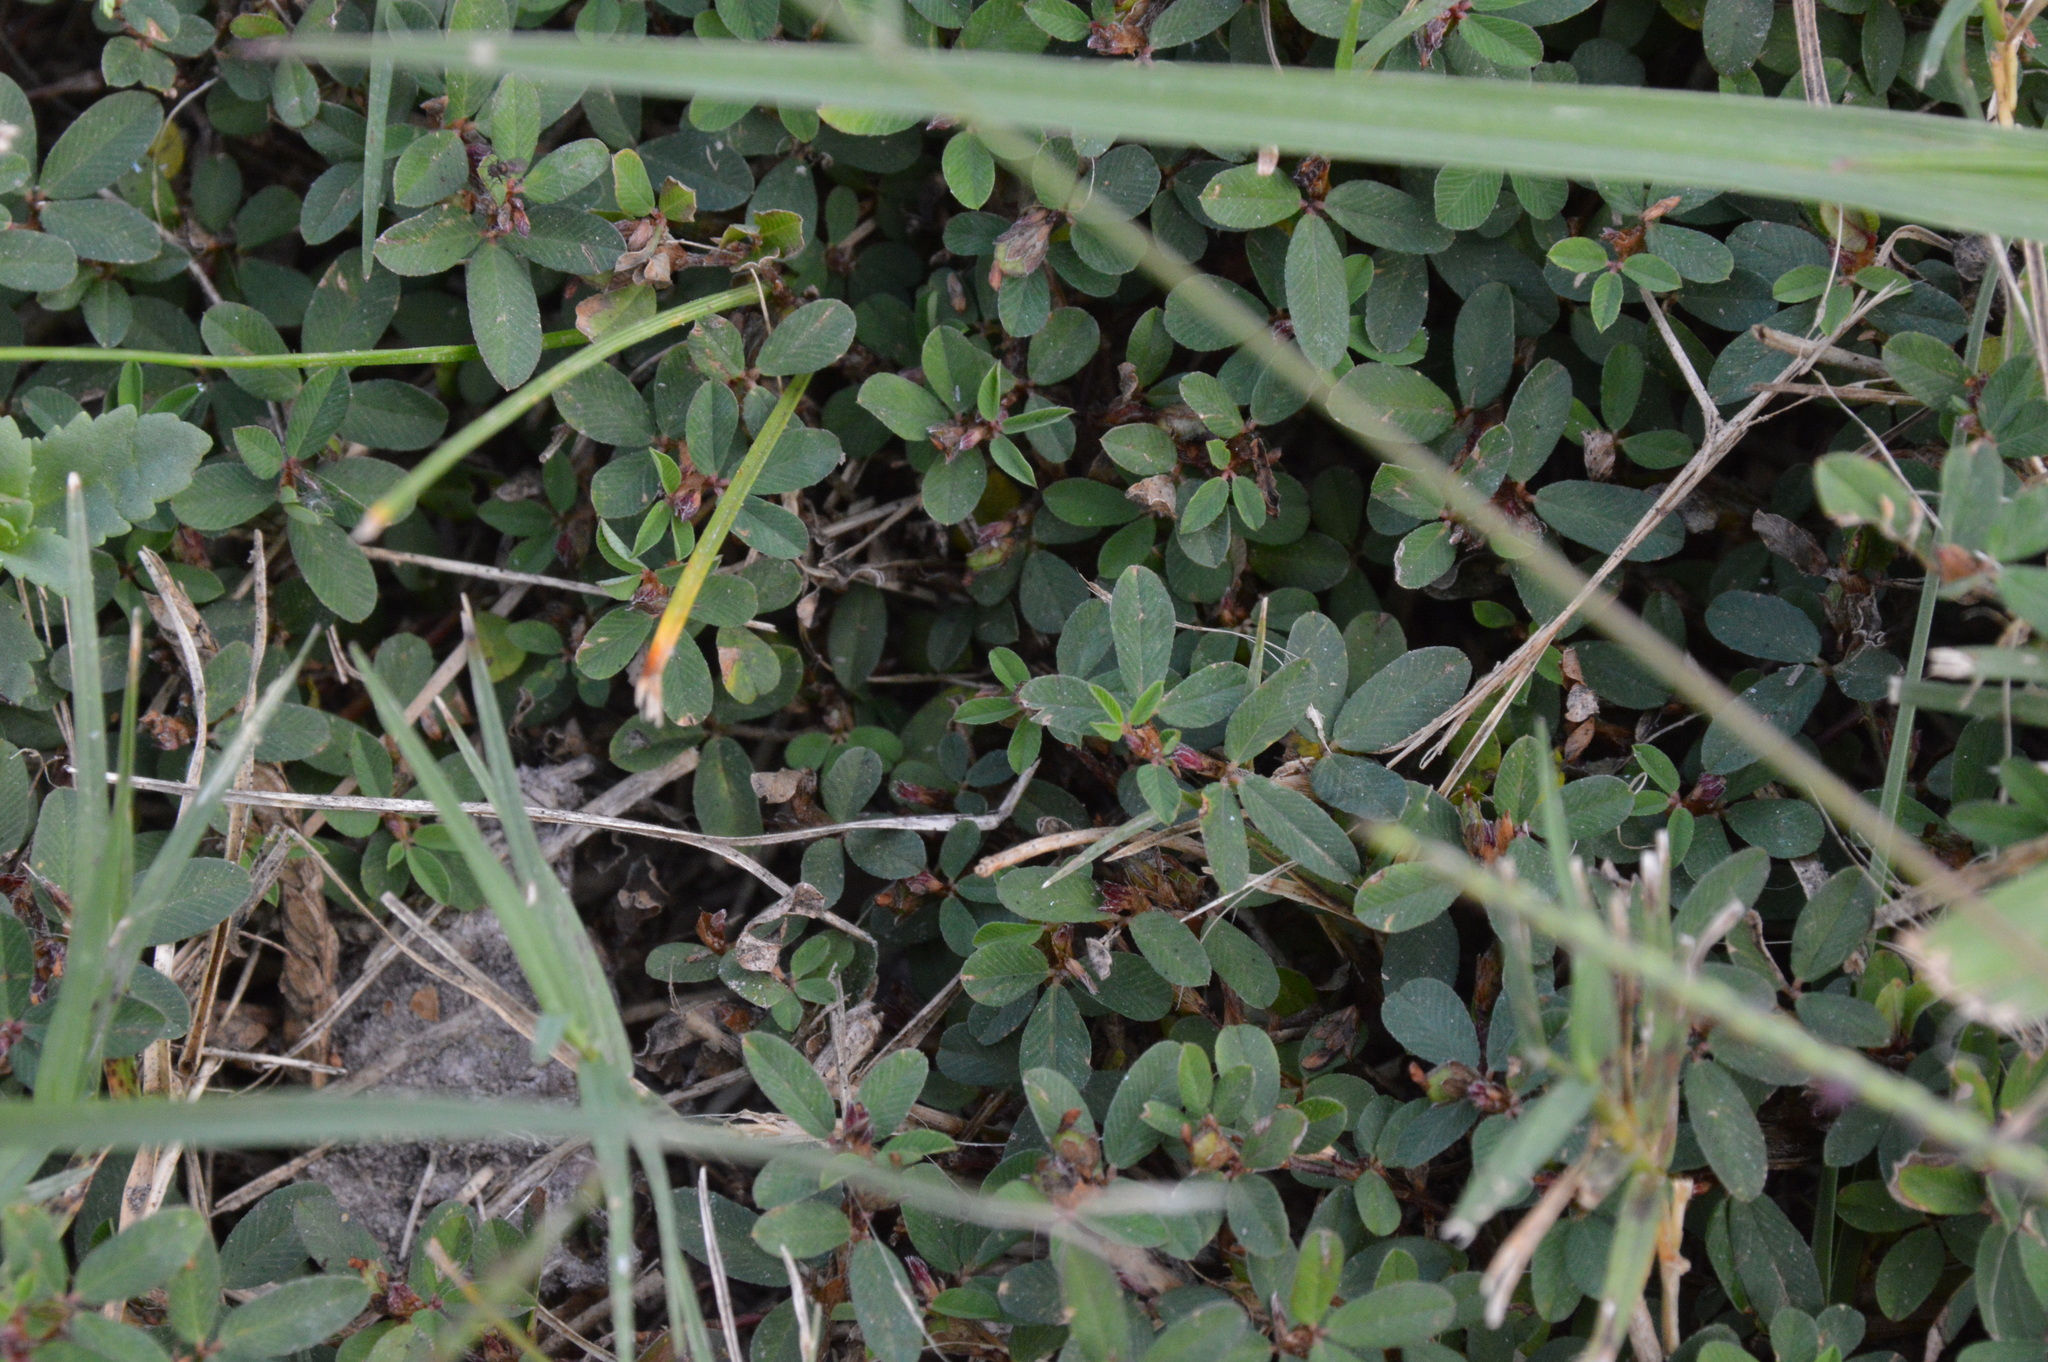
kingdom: Plantae
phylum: Tracheophyta
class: Magnoliopsida
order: Fabales
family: Fabaceae
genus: Kummerowia
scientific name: Kummerowia striata
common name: Japanese clover
